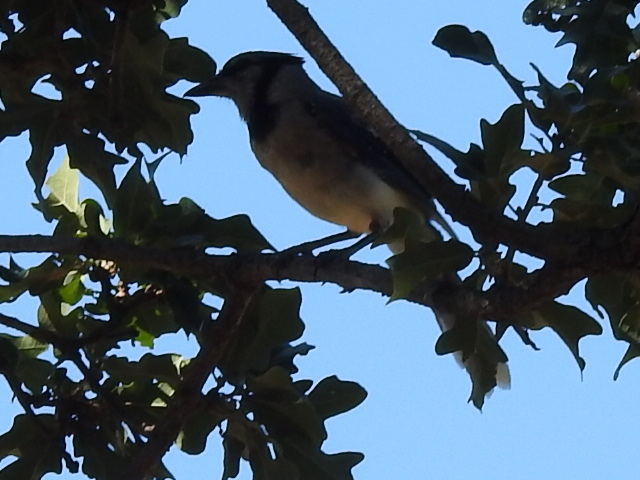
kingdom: Animalia
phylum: Chordata
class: Aves
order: Passeriformes
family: Corvidae
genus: Cyanocitta
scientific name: Cyanocitta cristata
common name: Blue jay
